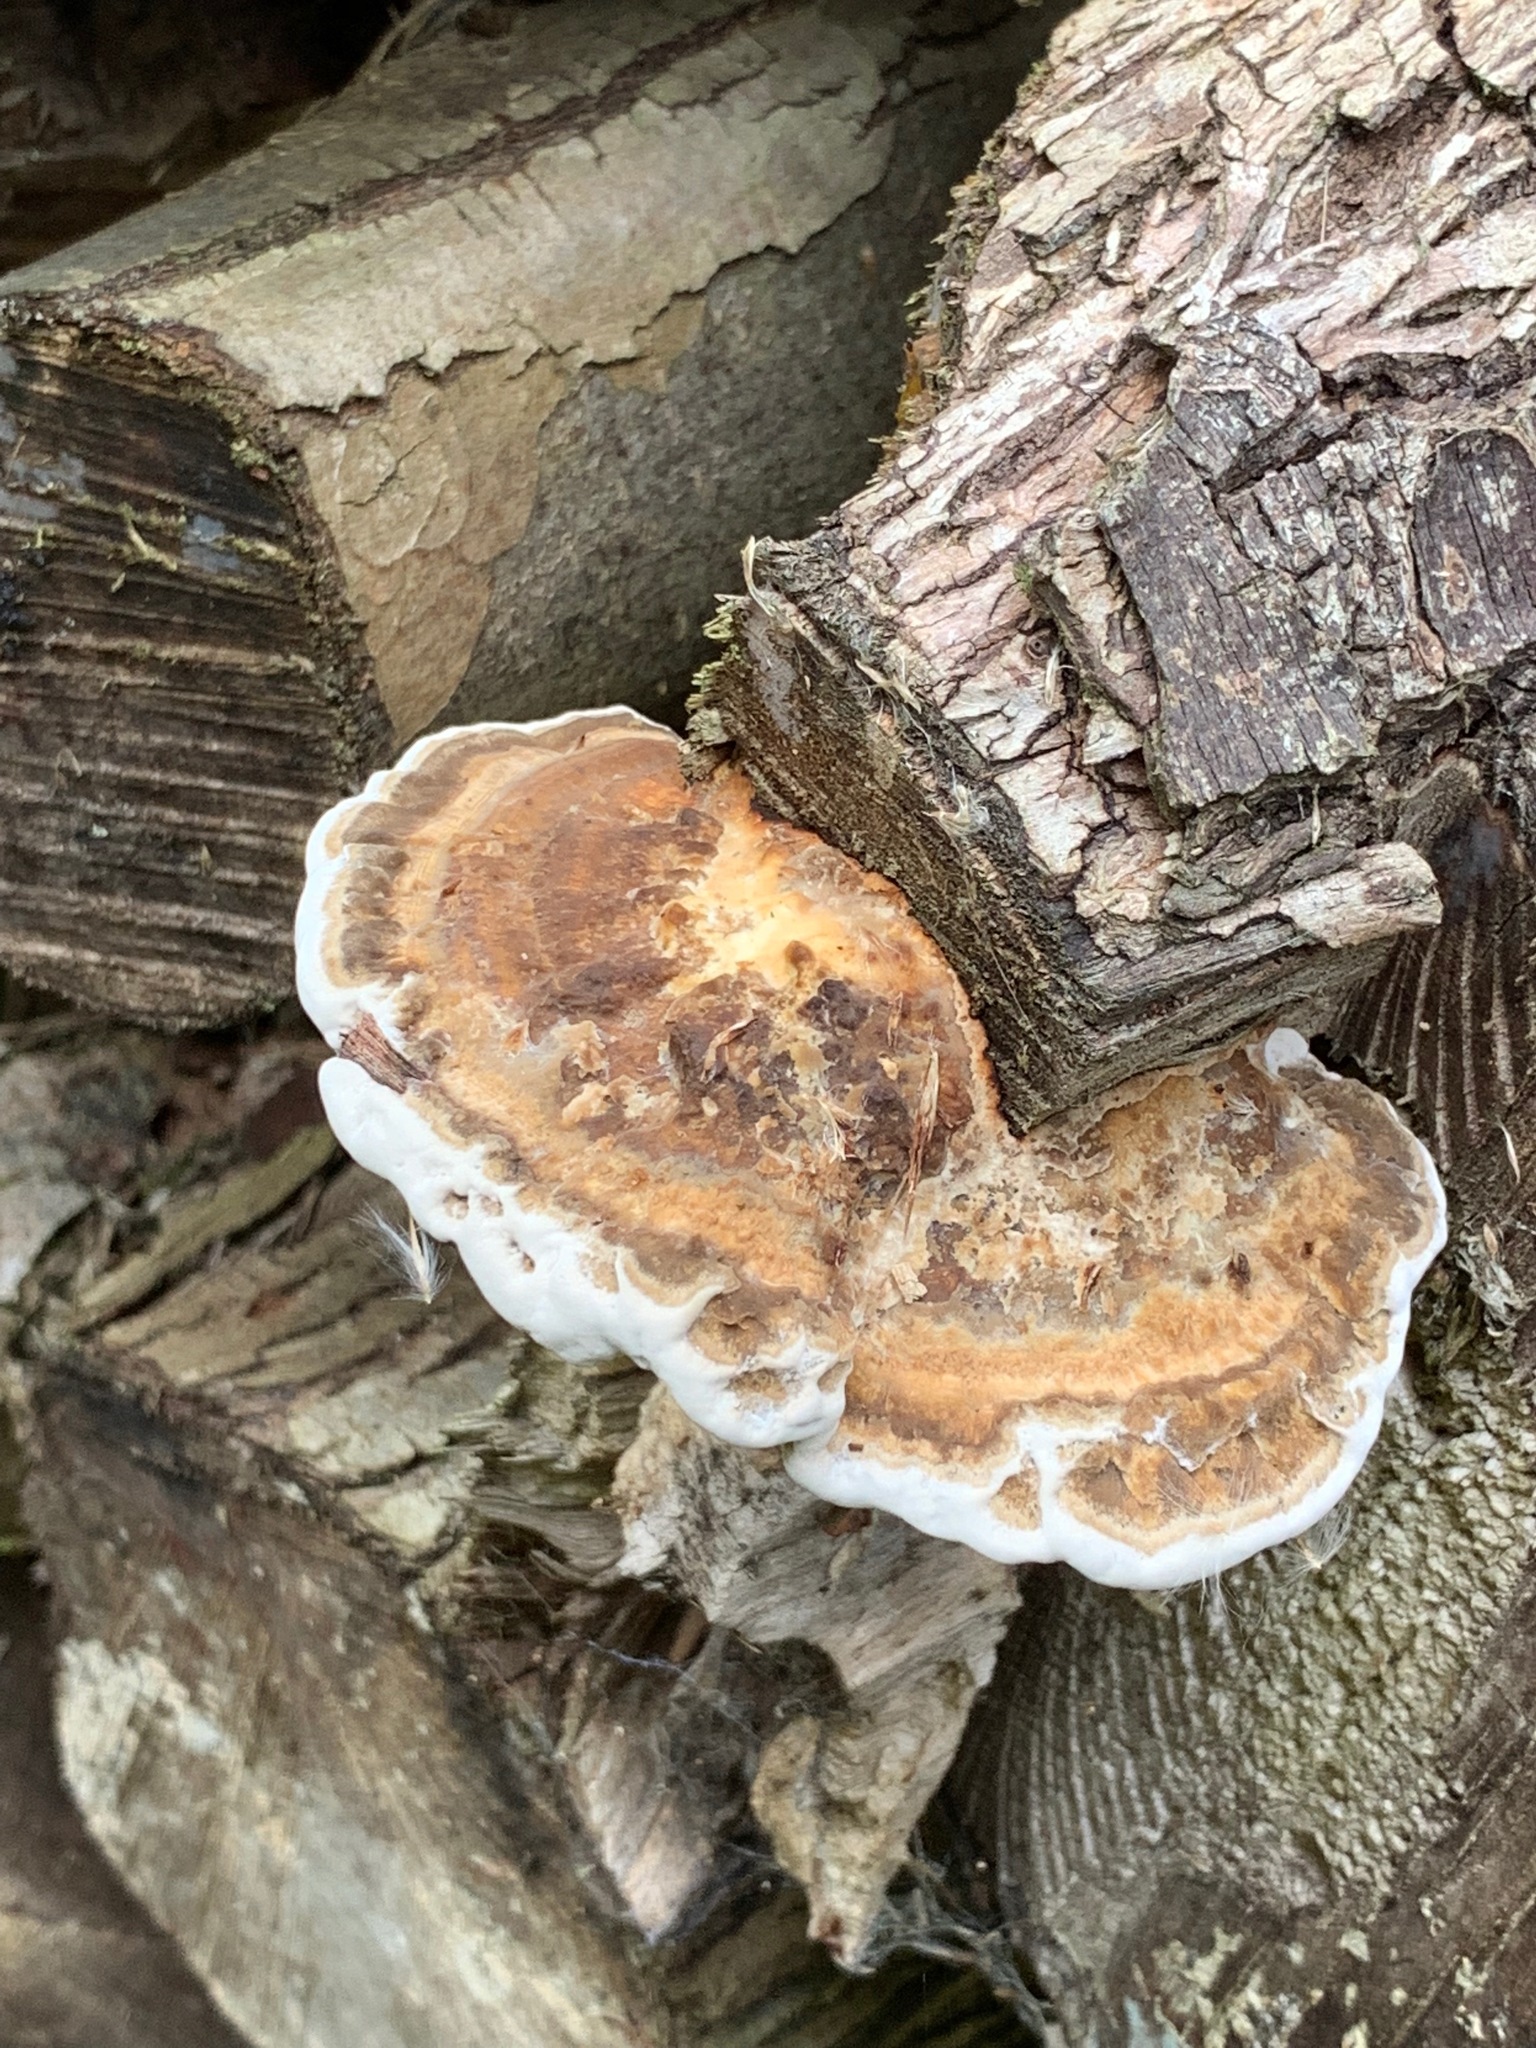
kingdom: Fungi
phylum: Basidiomycota
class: Agaricomycetes
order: Polyporales
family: Polyporaceae
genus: Ganoderma
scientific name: Ganoderma applanatum
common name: Artist's bracket
